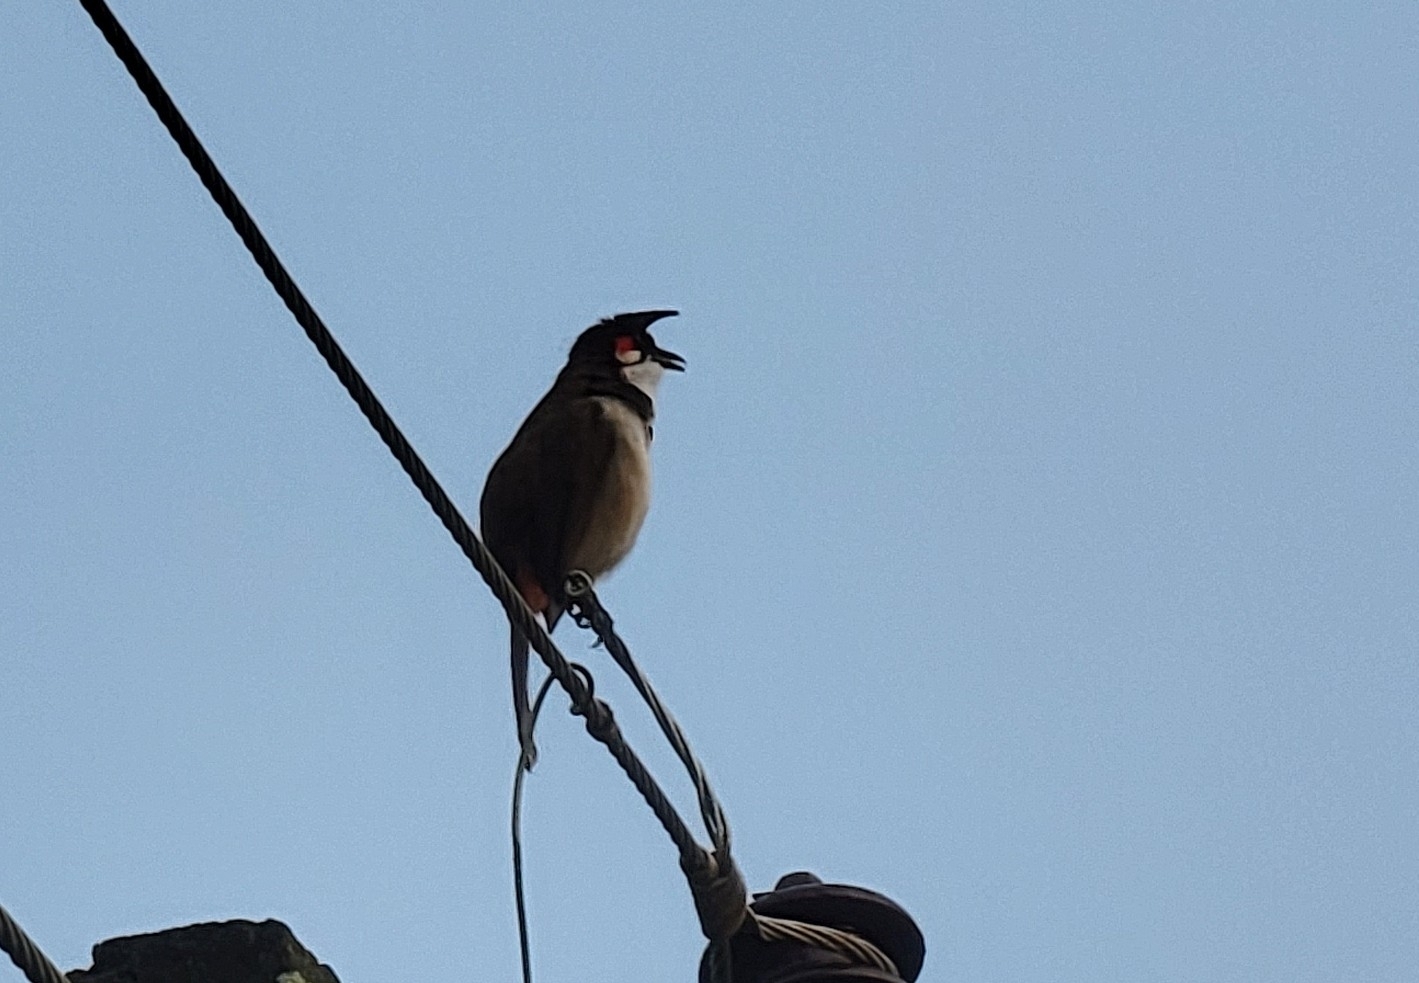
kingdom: Animalia
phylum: Chordata
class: Aves
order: Passeriformes
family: Pycnonotidae
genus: Pycnonotus
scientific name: Pycnonotus jocosus
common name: Red-whiskered bulbul
